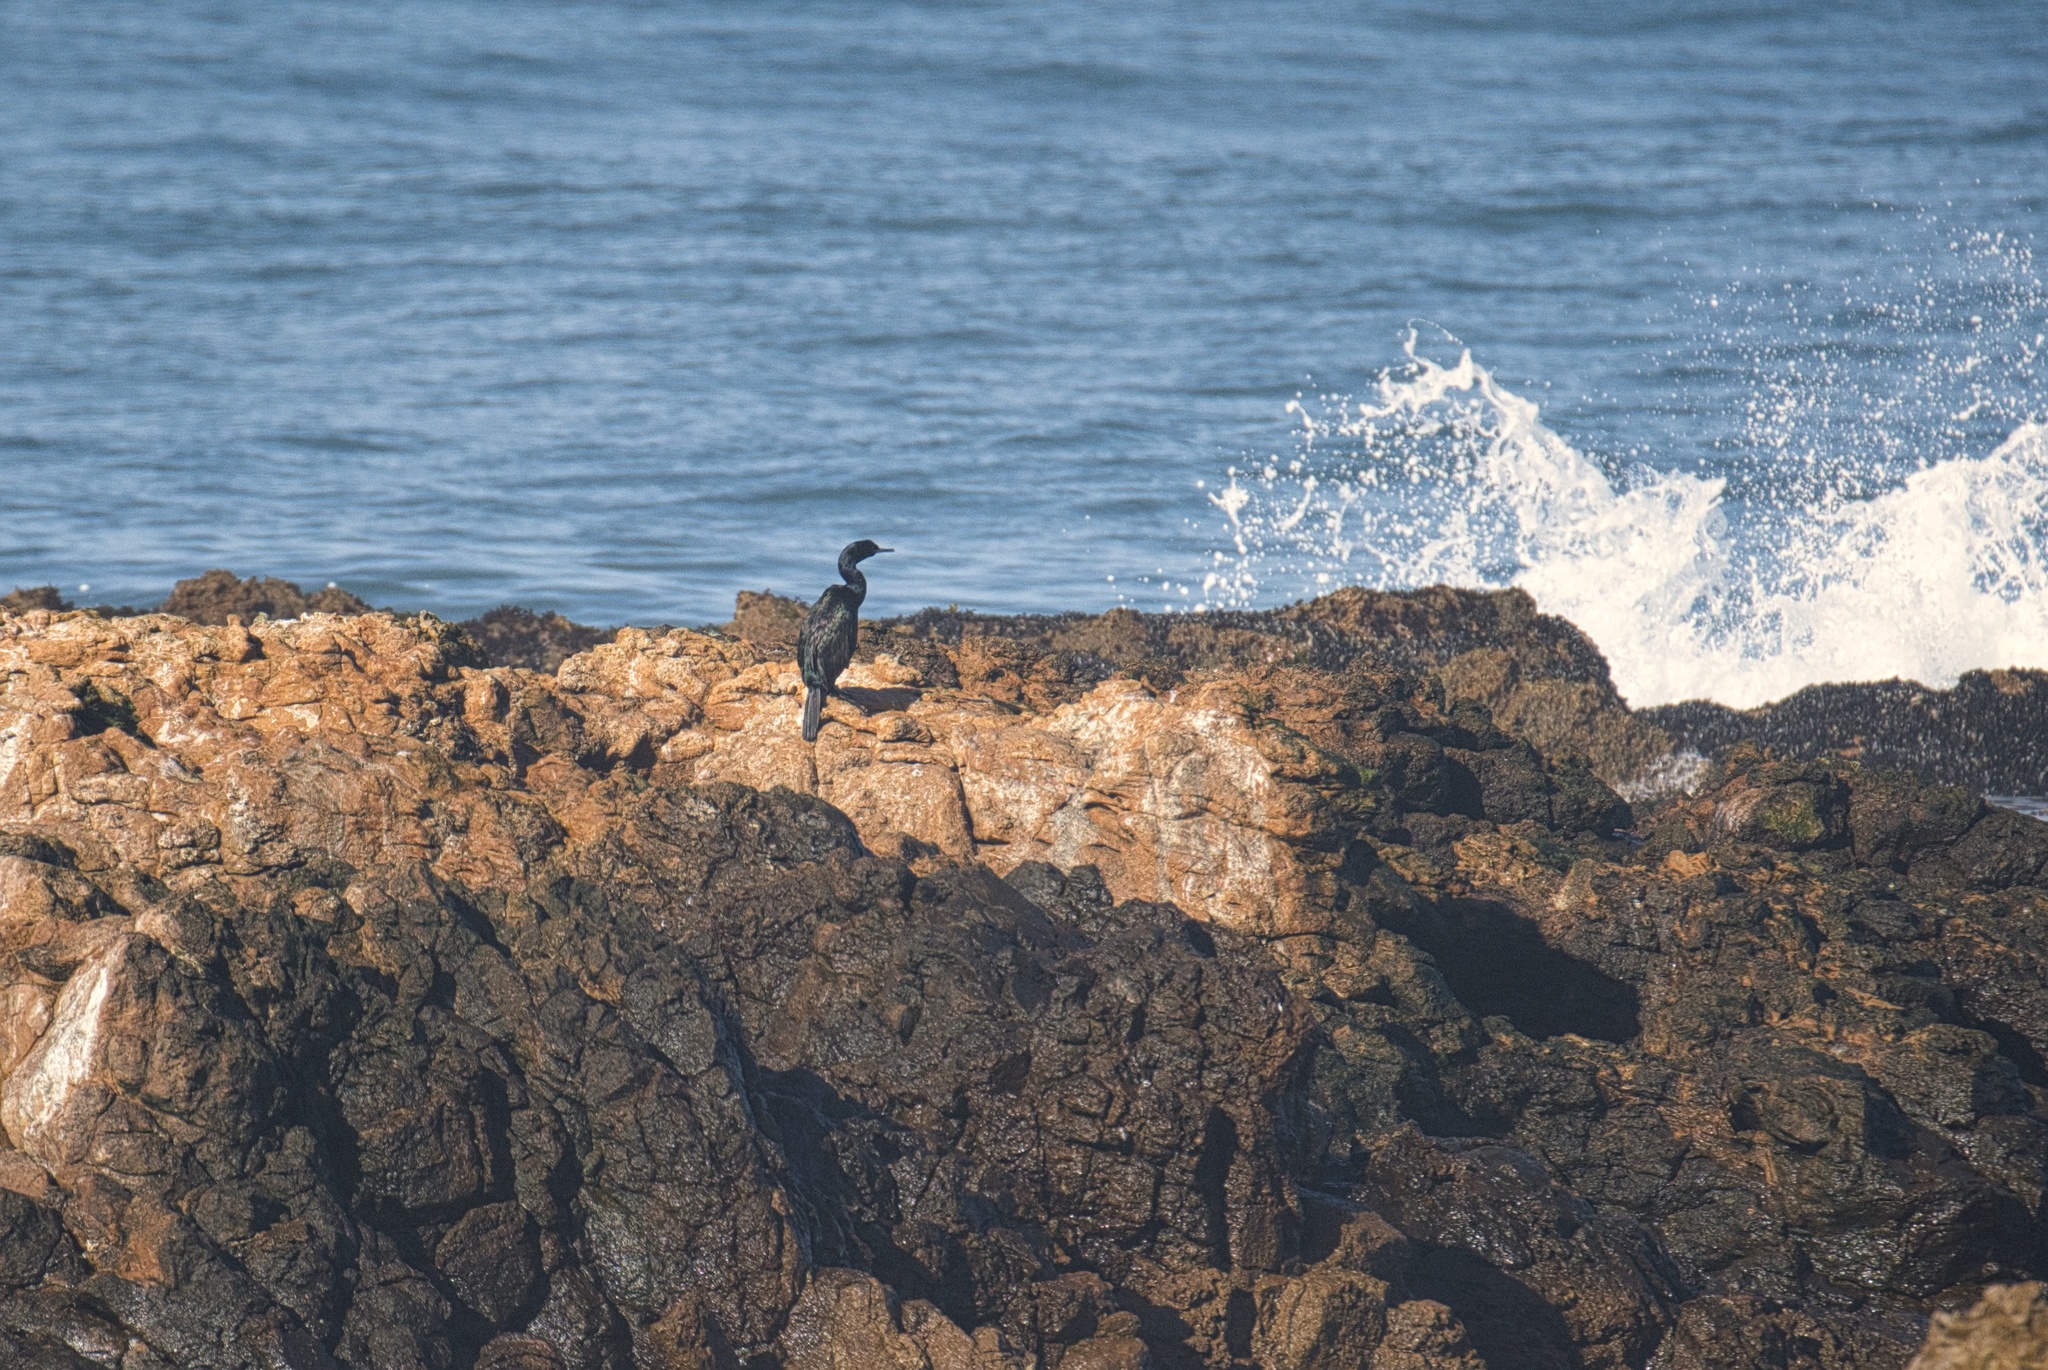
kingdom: Animalia
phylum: Chordata
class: Aves
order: Suliformes
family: Phalacrocoracidae
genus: Phalacrocorax
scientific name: Phalacrocorax pelagicus
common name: Pelagic cormorant
